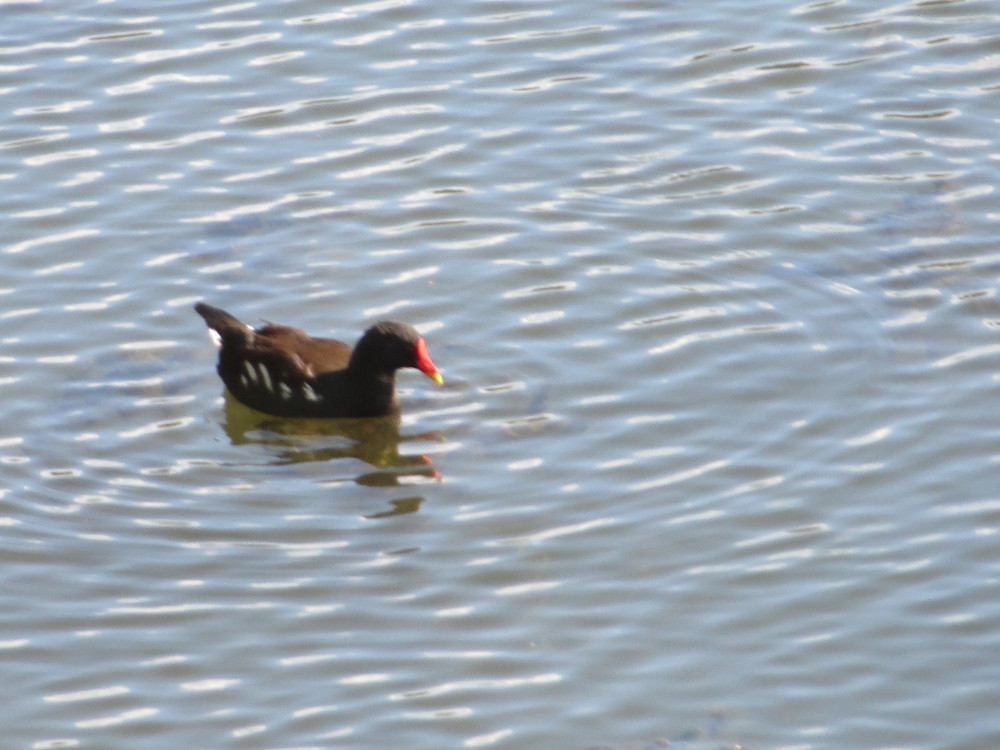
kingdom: Animalia
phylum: Chordata
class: Aves
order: Gruiformes
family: Rallidae
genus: Gallinula
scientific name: Gallinula chloropus
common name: Common moorhen
